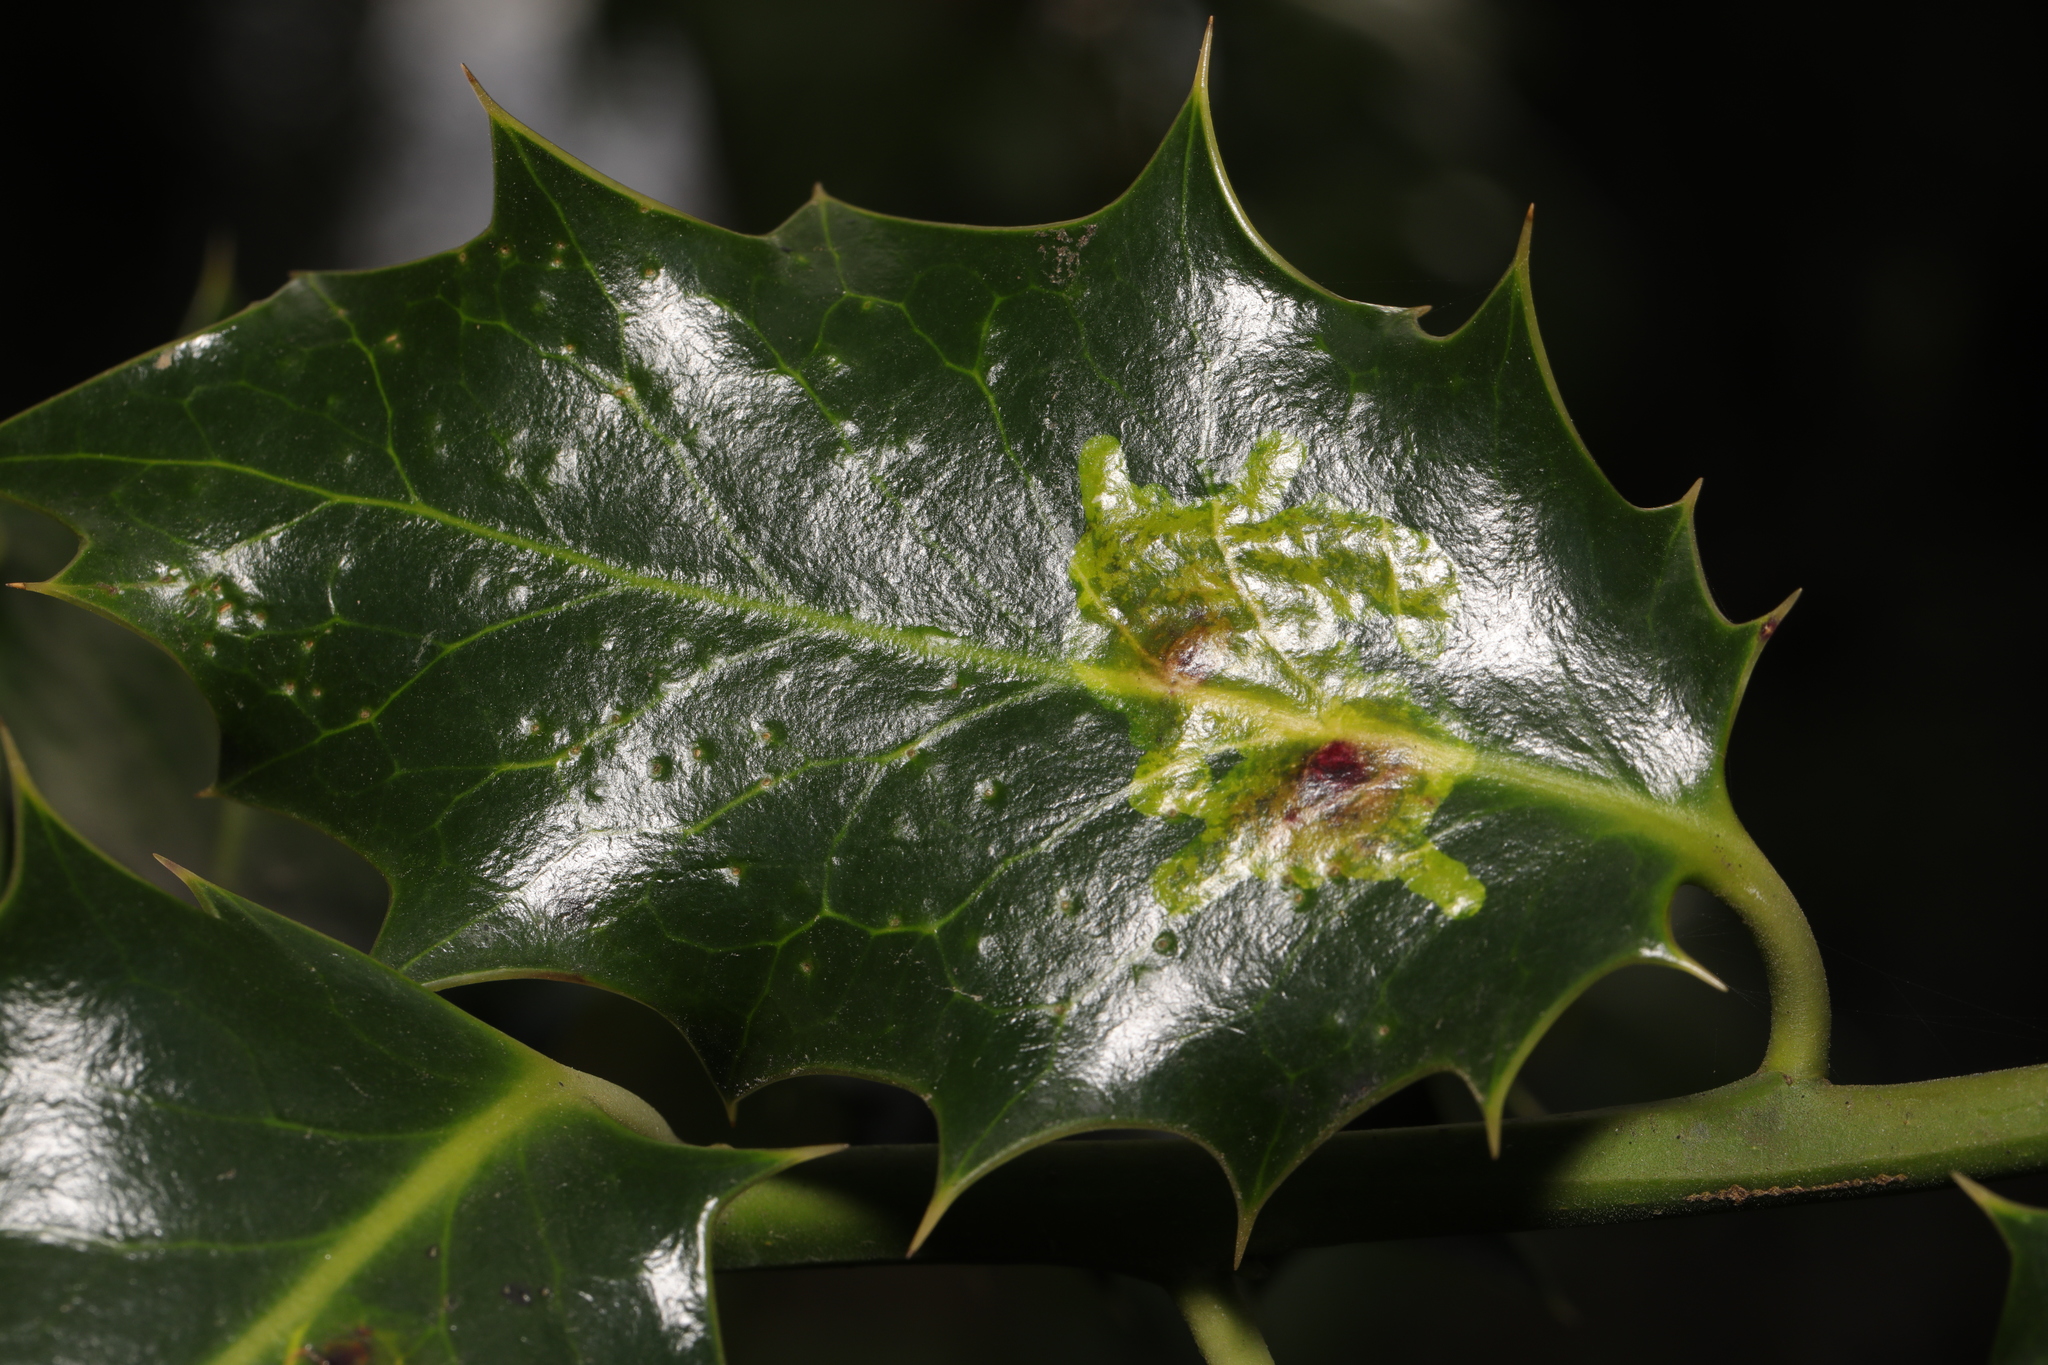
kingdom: Animalia
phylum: Arthropoda
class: Insecta
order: Diptera
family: Agromyzidae
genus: Phytomyza
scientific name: Phytomyza ilicis
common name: Holly leafminer
